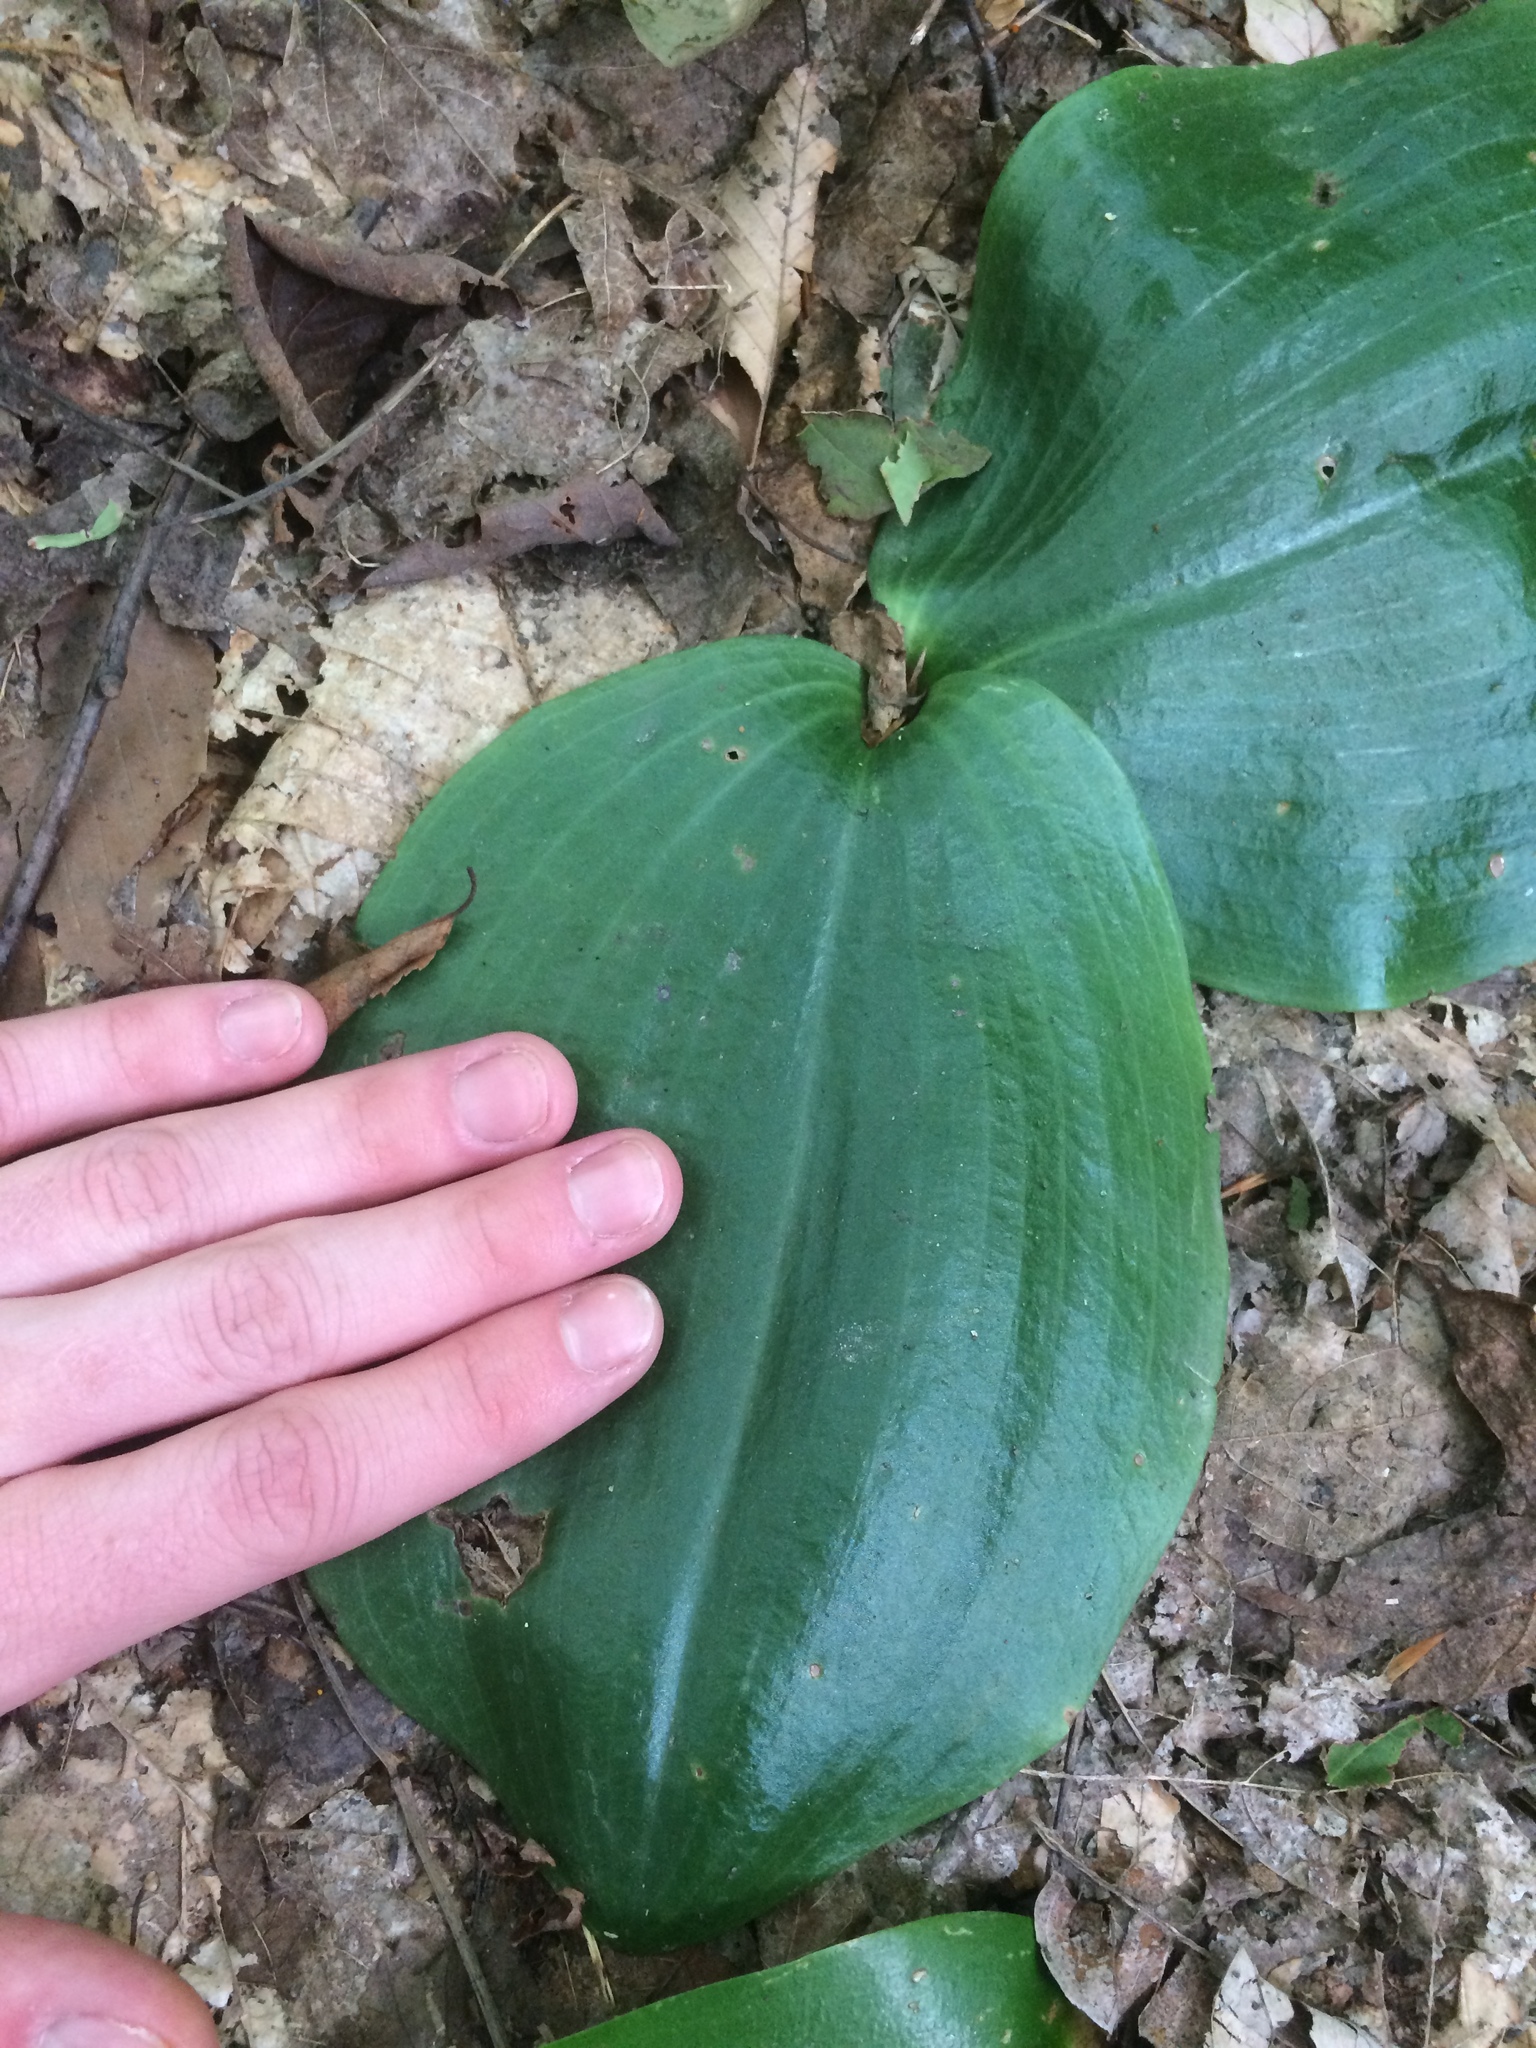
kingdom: Plantae
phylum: Tracheophyta
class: Liliopsida
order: Asparagales
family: Orchidaceae
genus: Platanthera
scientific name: Platanthera orbiculata
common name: Large round-leaved orchid
